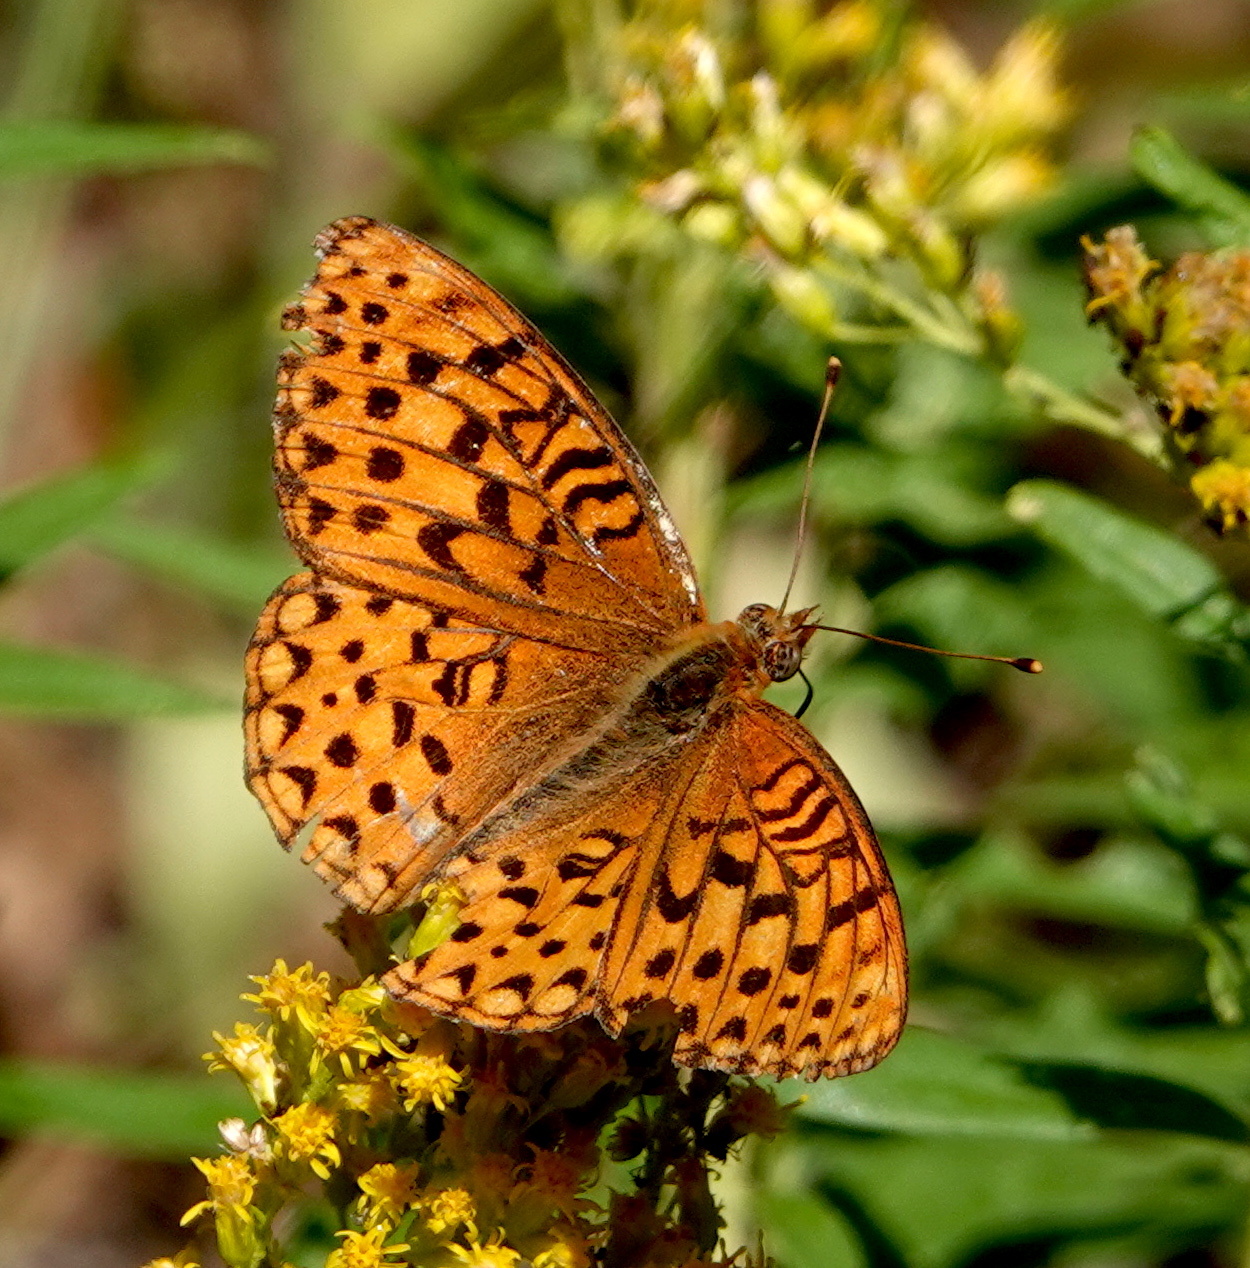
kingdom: Animalia
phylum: Arthropoda
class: Insecta
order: Lepidoptera
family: Nymphalidae
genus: Speyeria
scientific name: Speyeria mormonia
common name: Mormon fritillary
